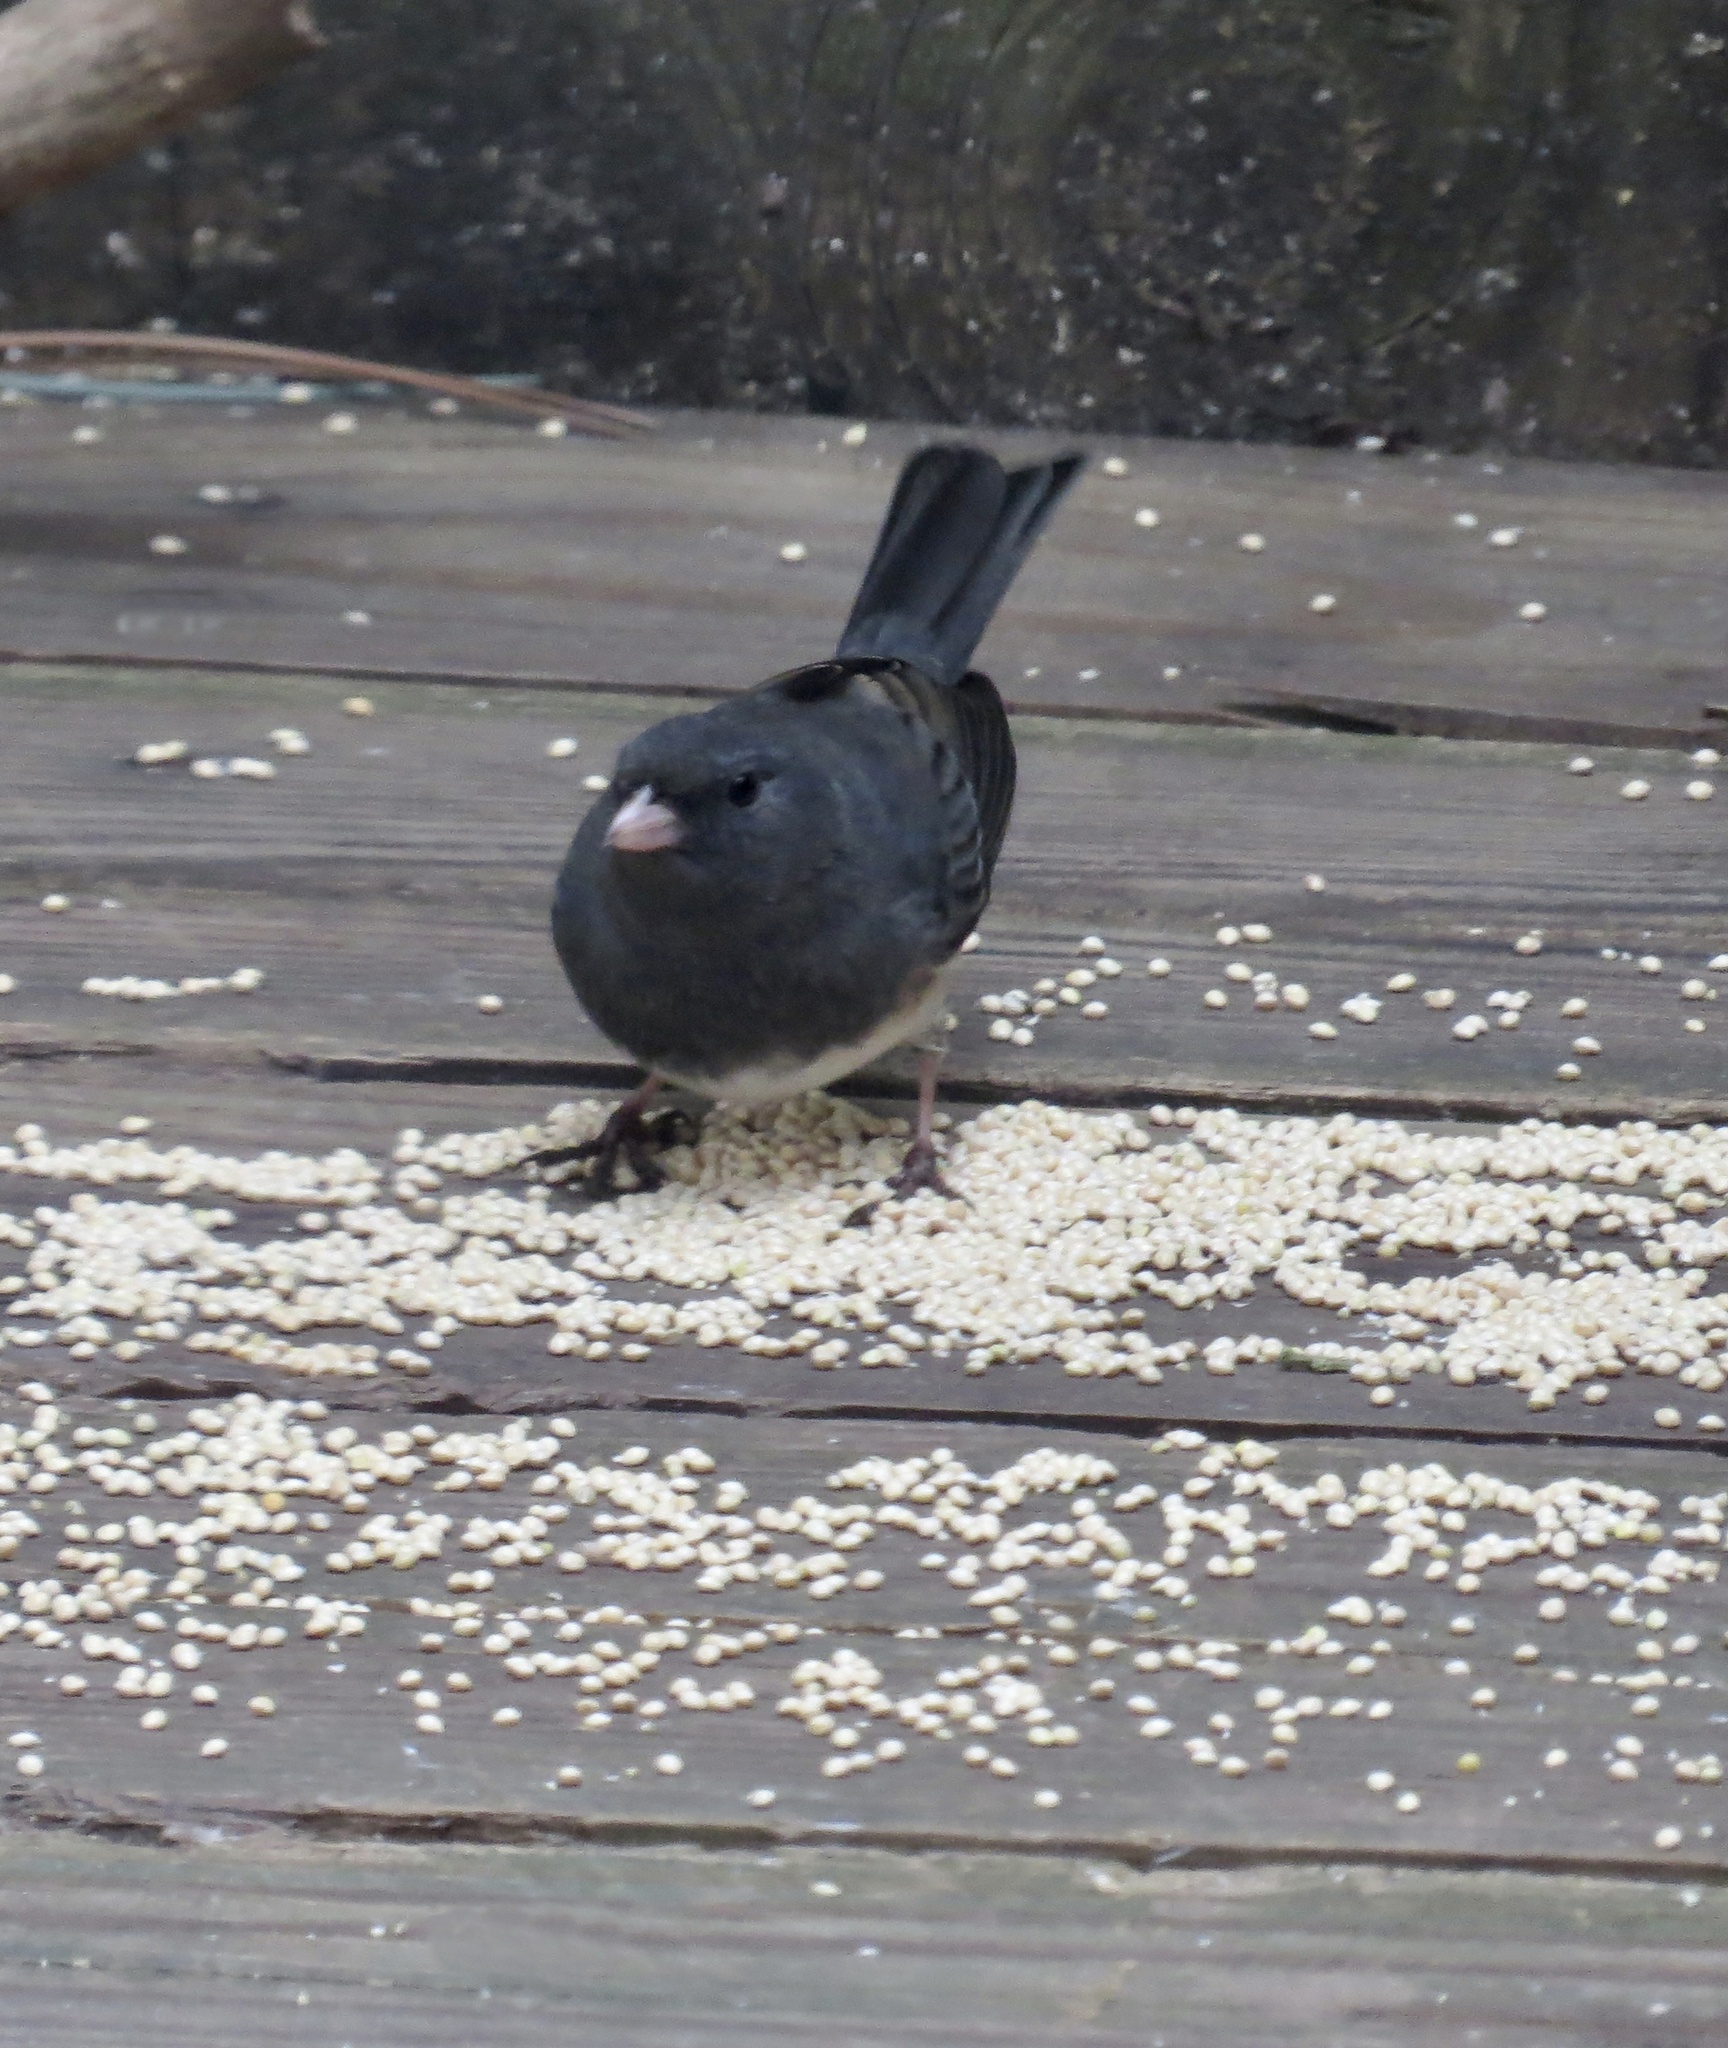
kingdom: Animalia
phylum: Chordata
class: Aves
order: Passeriformes
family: Passerellidae
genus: Junco
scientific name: Junco hyemalis
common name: Dark-eyed junco
